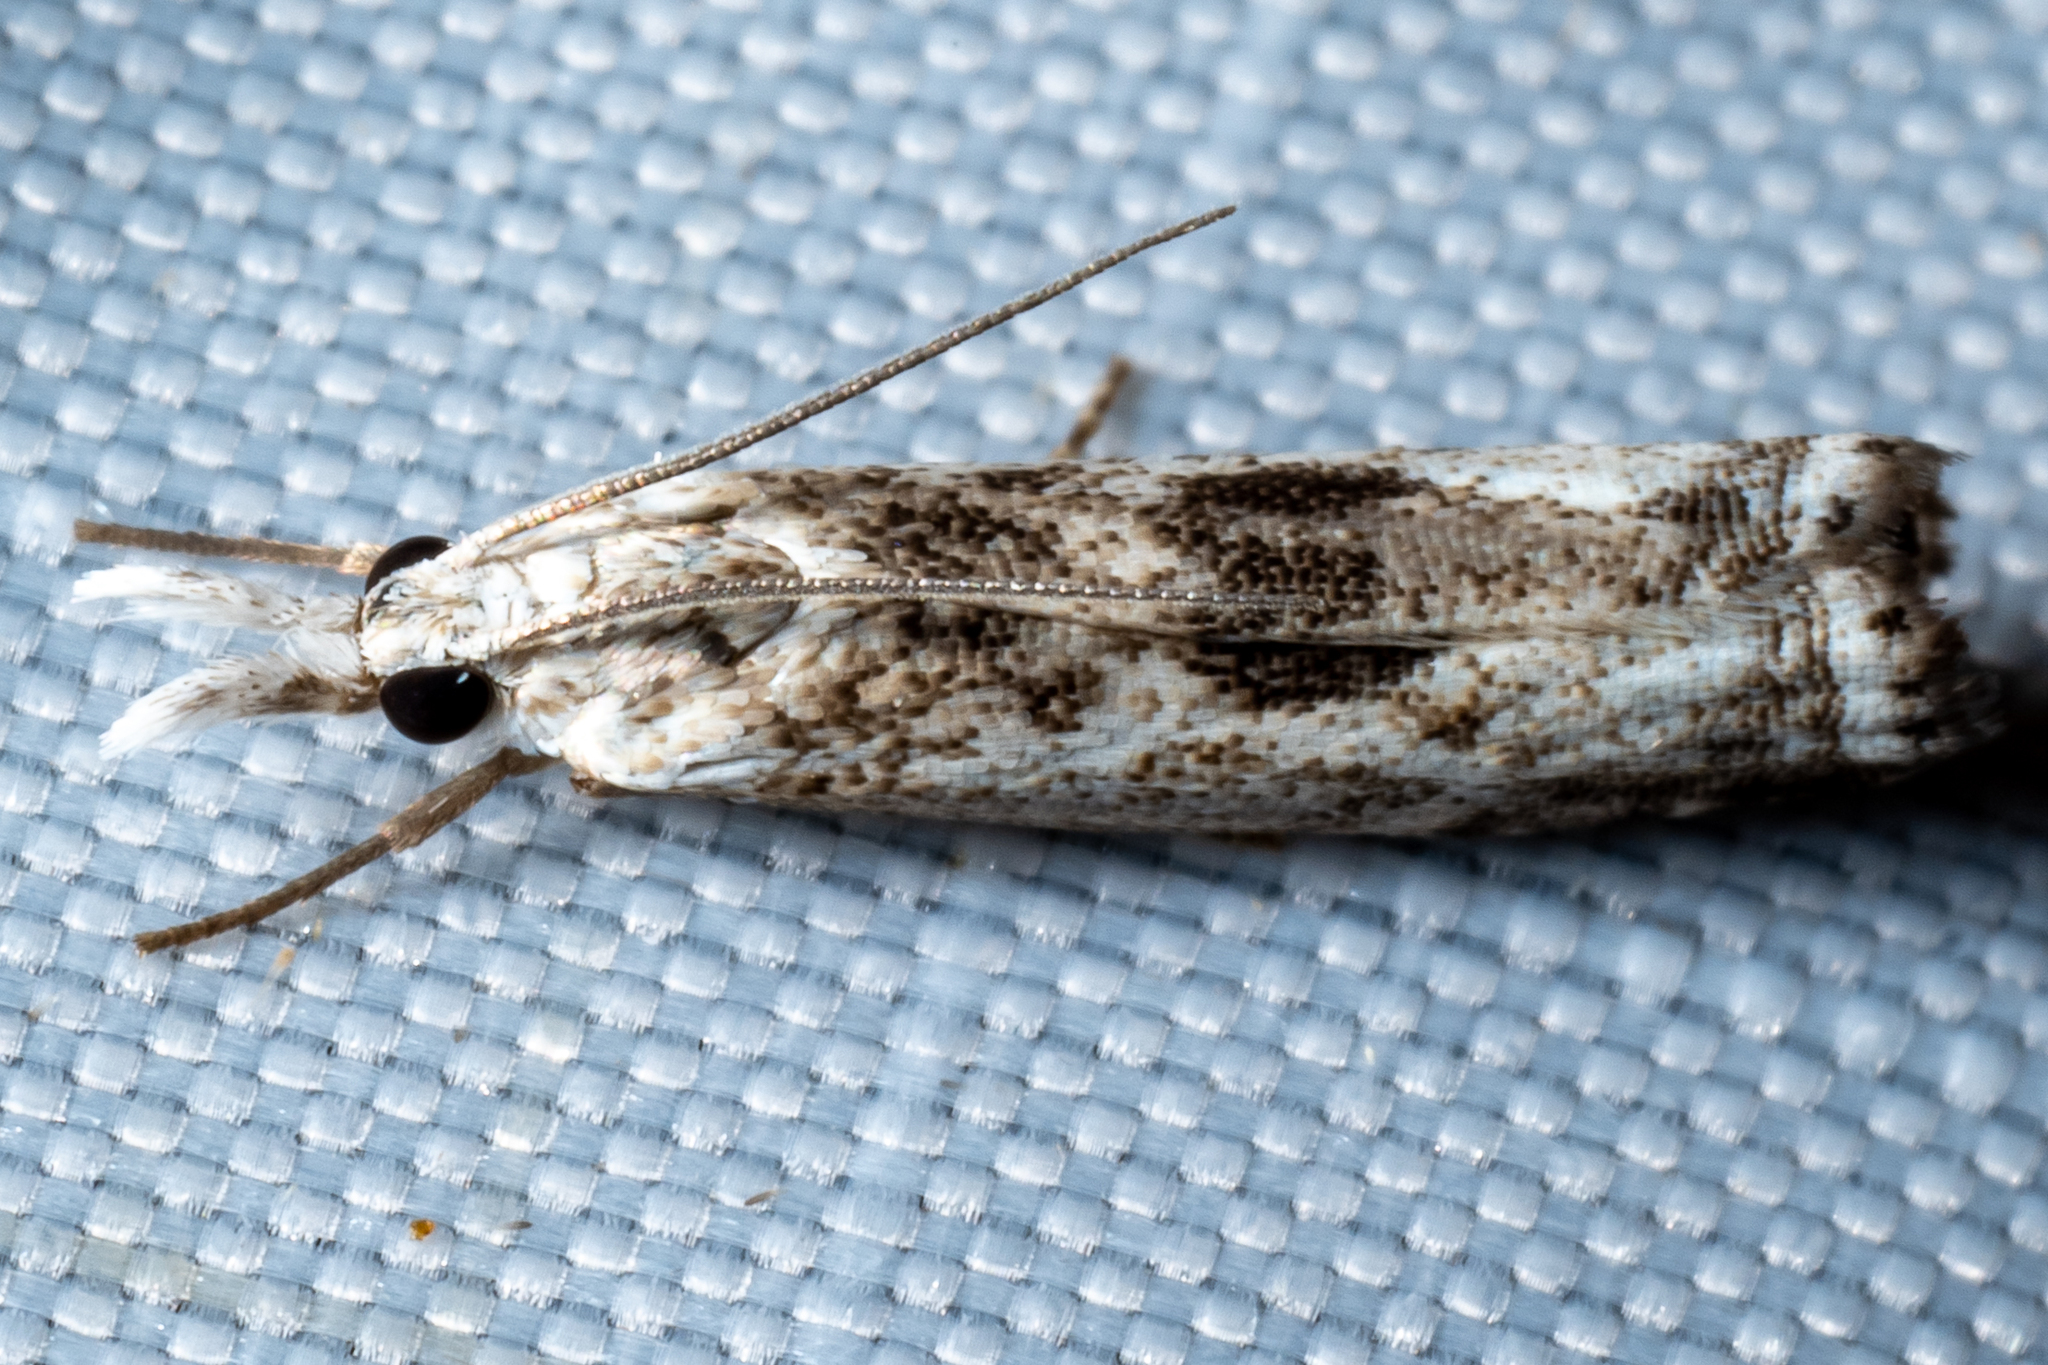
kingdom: Animalia
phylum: Arthropoda
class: Insecta
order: Lepidoptera
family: Crambidae
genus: Microcrambus
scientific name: Microcrambus immunellus
